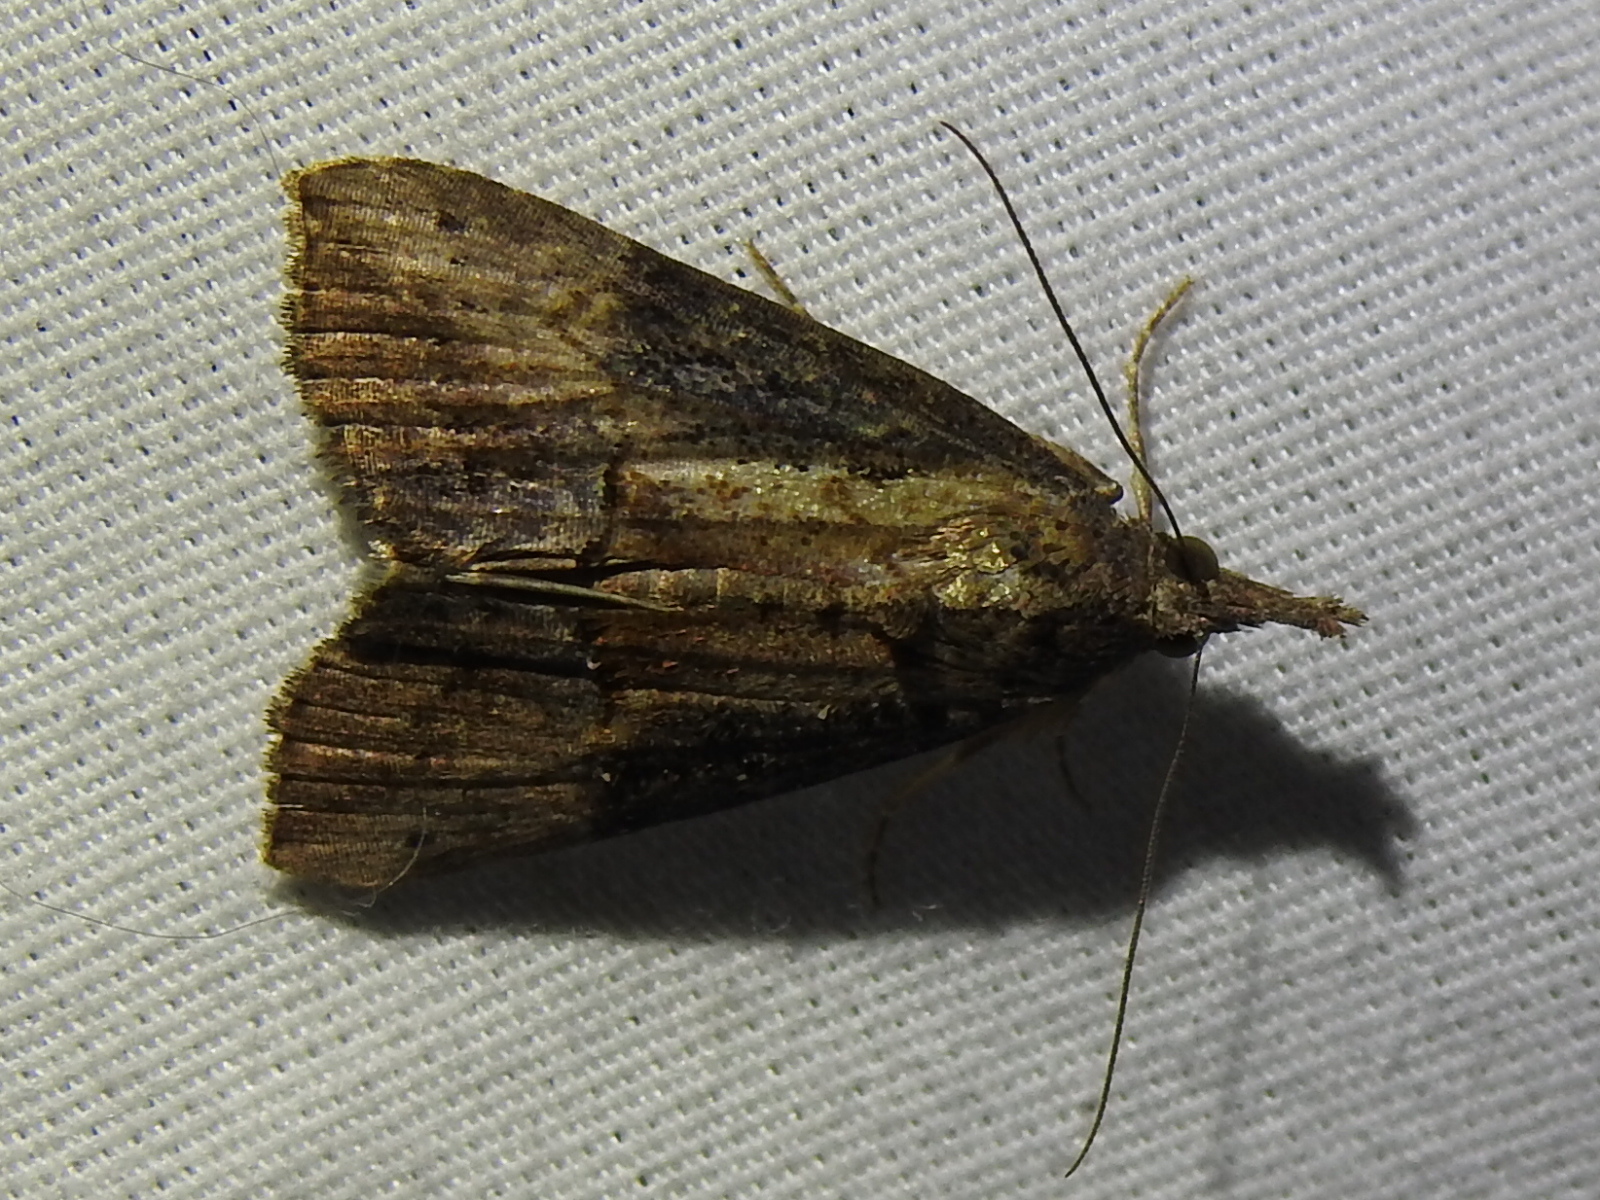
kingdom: Animalia
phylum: Arthropoda
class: Insecta
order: Lepidoptera
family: Erebidae
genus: Hypena
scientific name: Hypena scabra
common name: Green cloverworm
